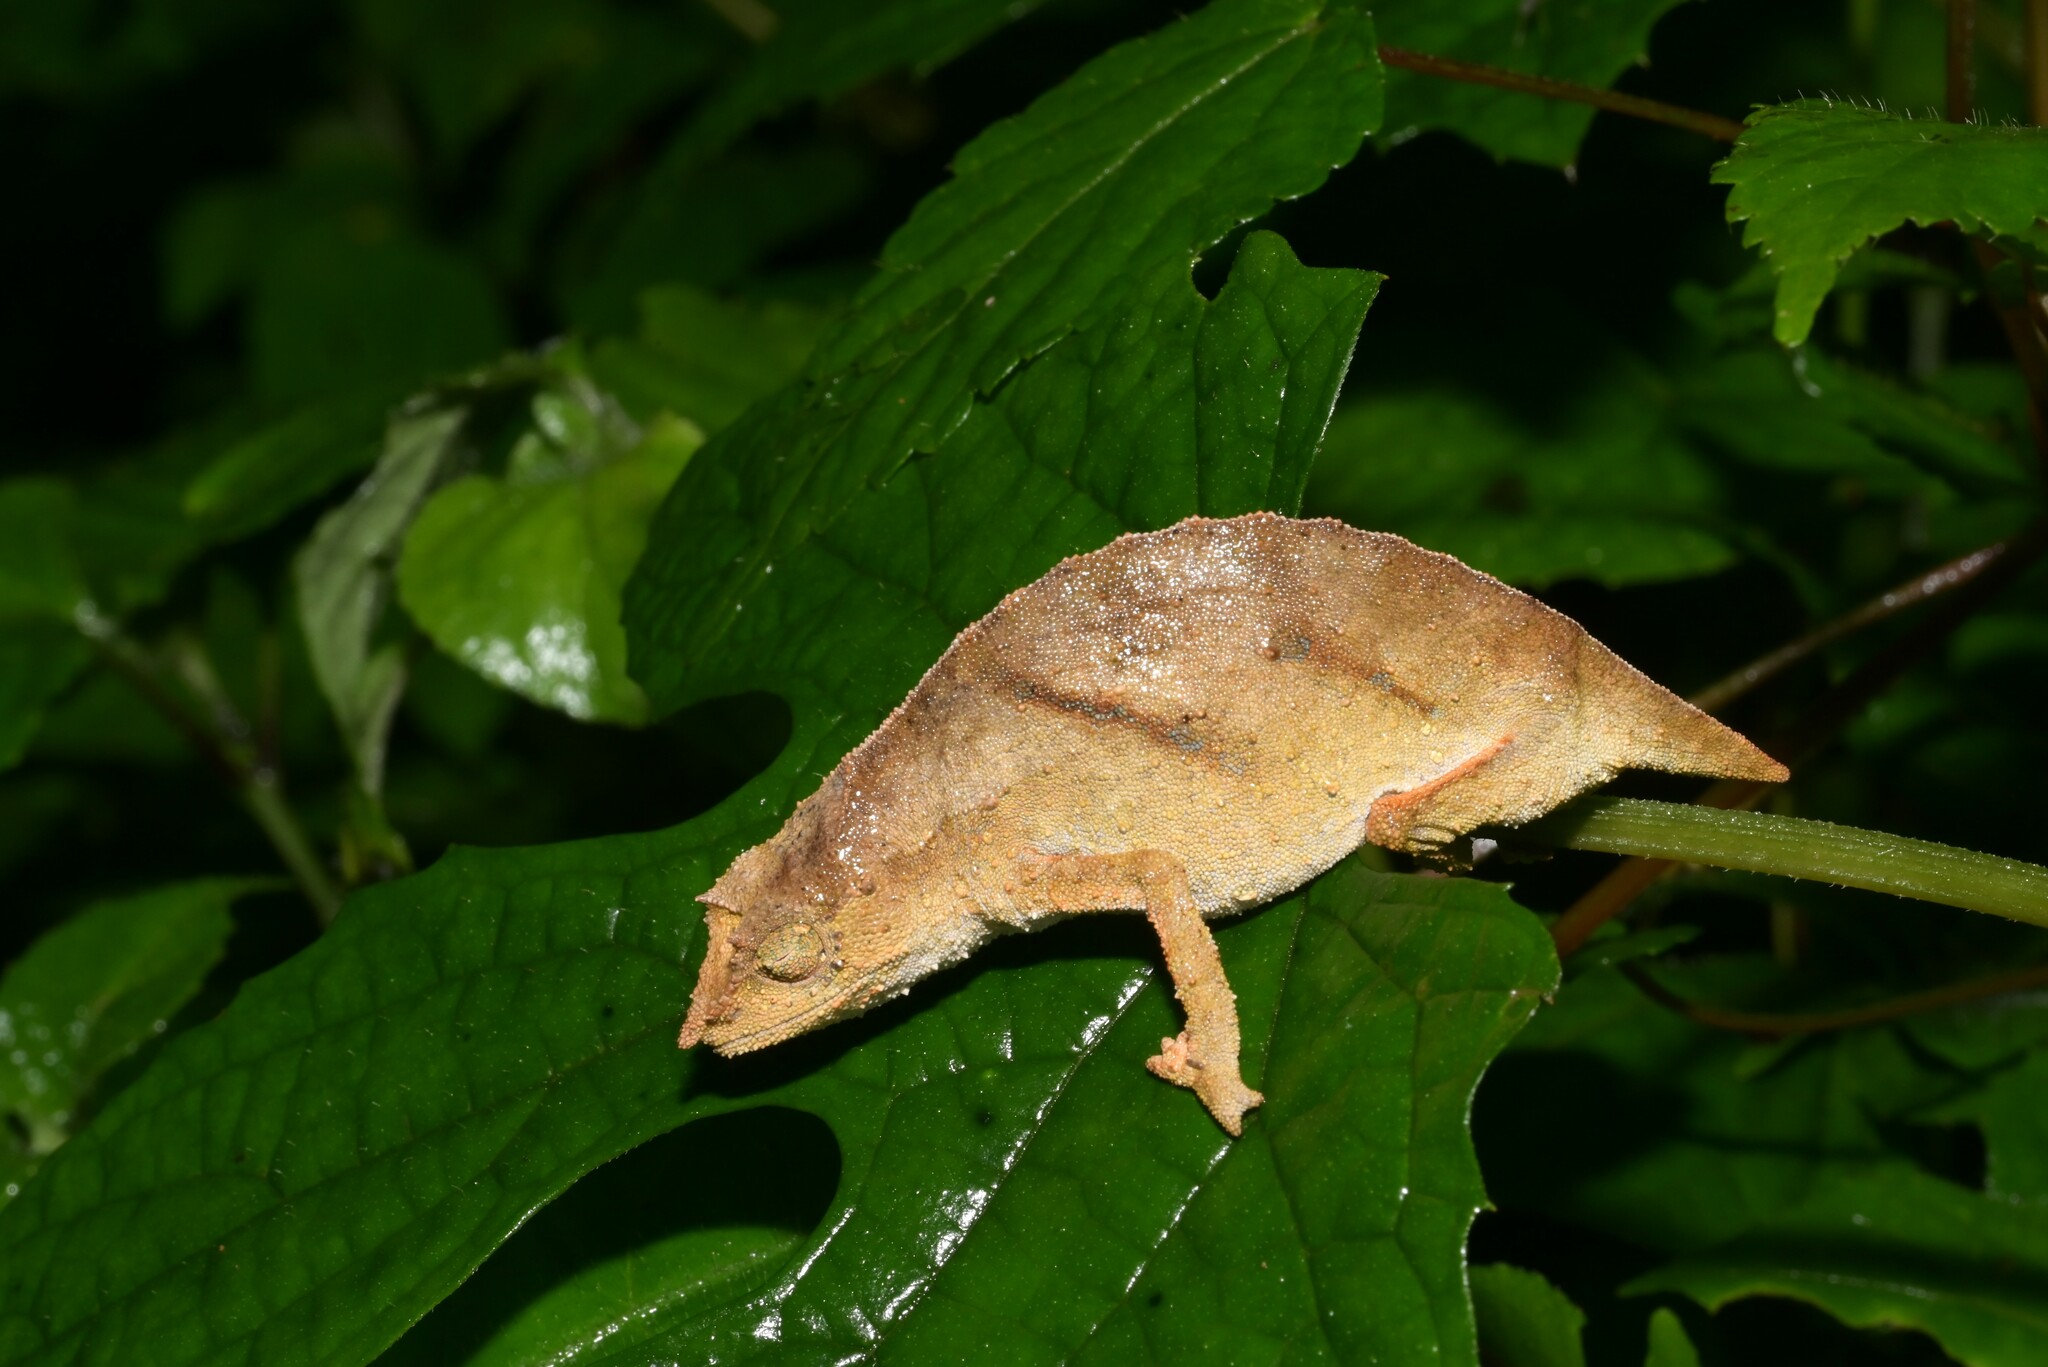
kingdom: Animalia
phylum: Chordata
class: Squamata
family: Chamaeleonidae
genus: Rhampholeon
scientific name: Rhampholeon nchisiensis
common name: South african stumptail chameleon
